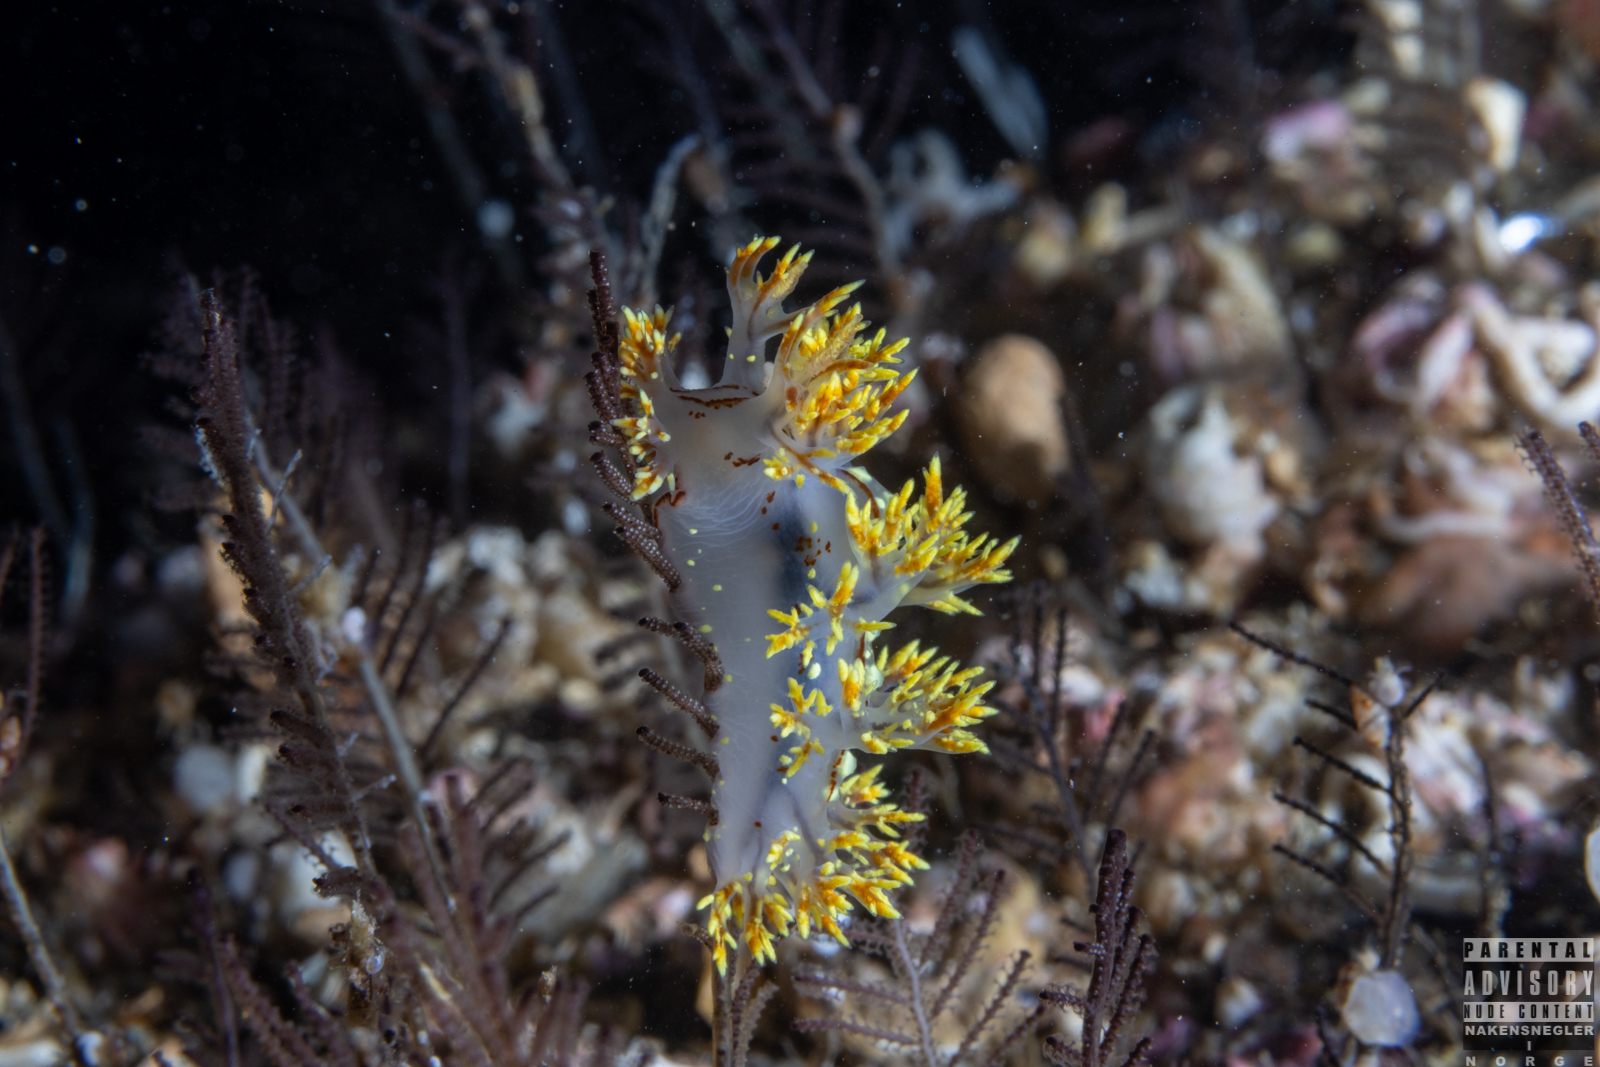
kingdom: Animalia
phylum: Mollusca
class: Gastropoda
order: Nudibranchia
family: Dendronotidae
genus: Dendronotus
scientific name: Dendronotus yrjargul
